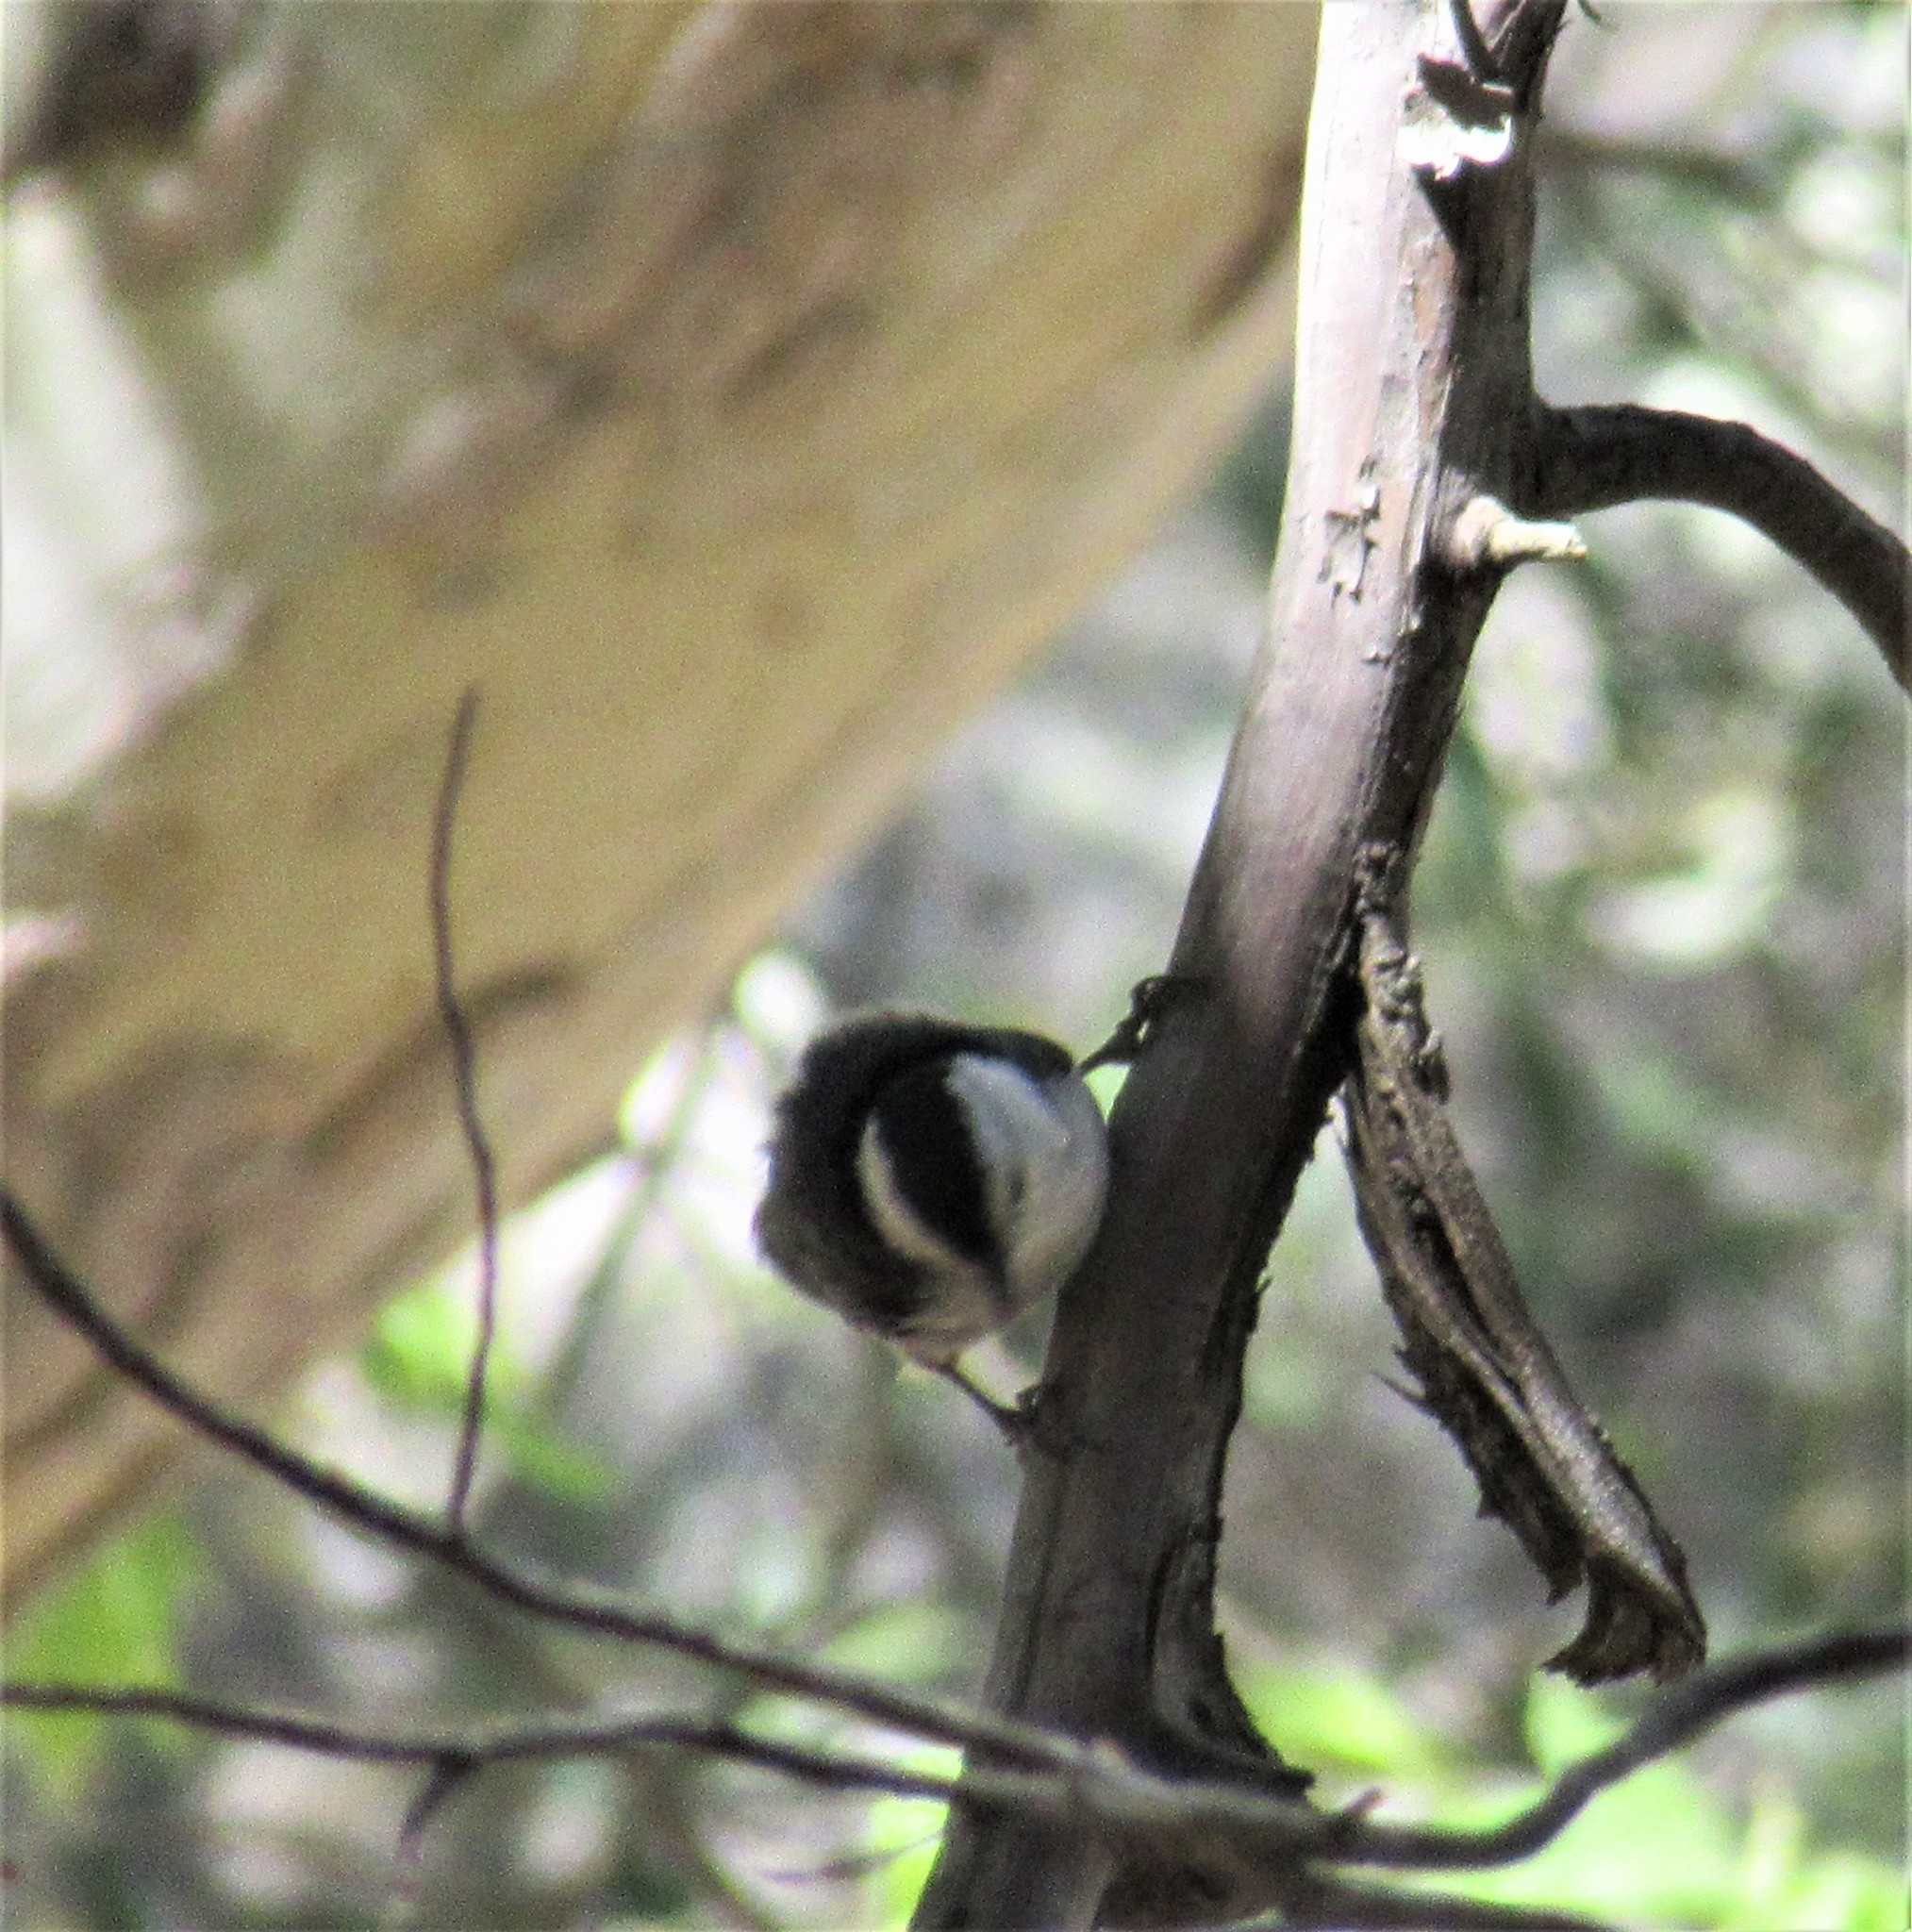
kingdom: Animalia
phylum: Chordata
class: Aves
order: Passeriformes
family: Sittidae
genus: Sitta
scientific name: Sitta carolinensis
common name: White-breasted nuthatch
